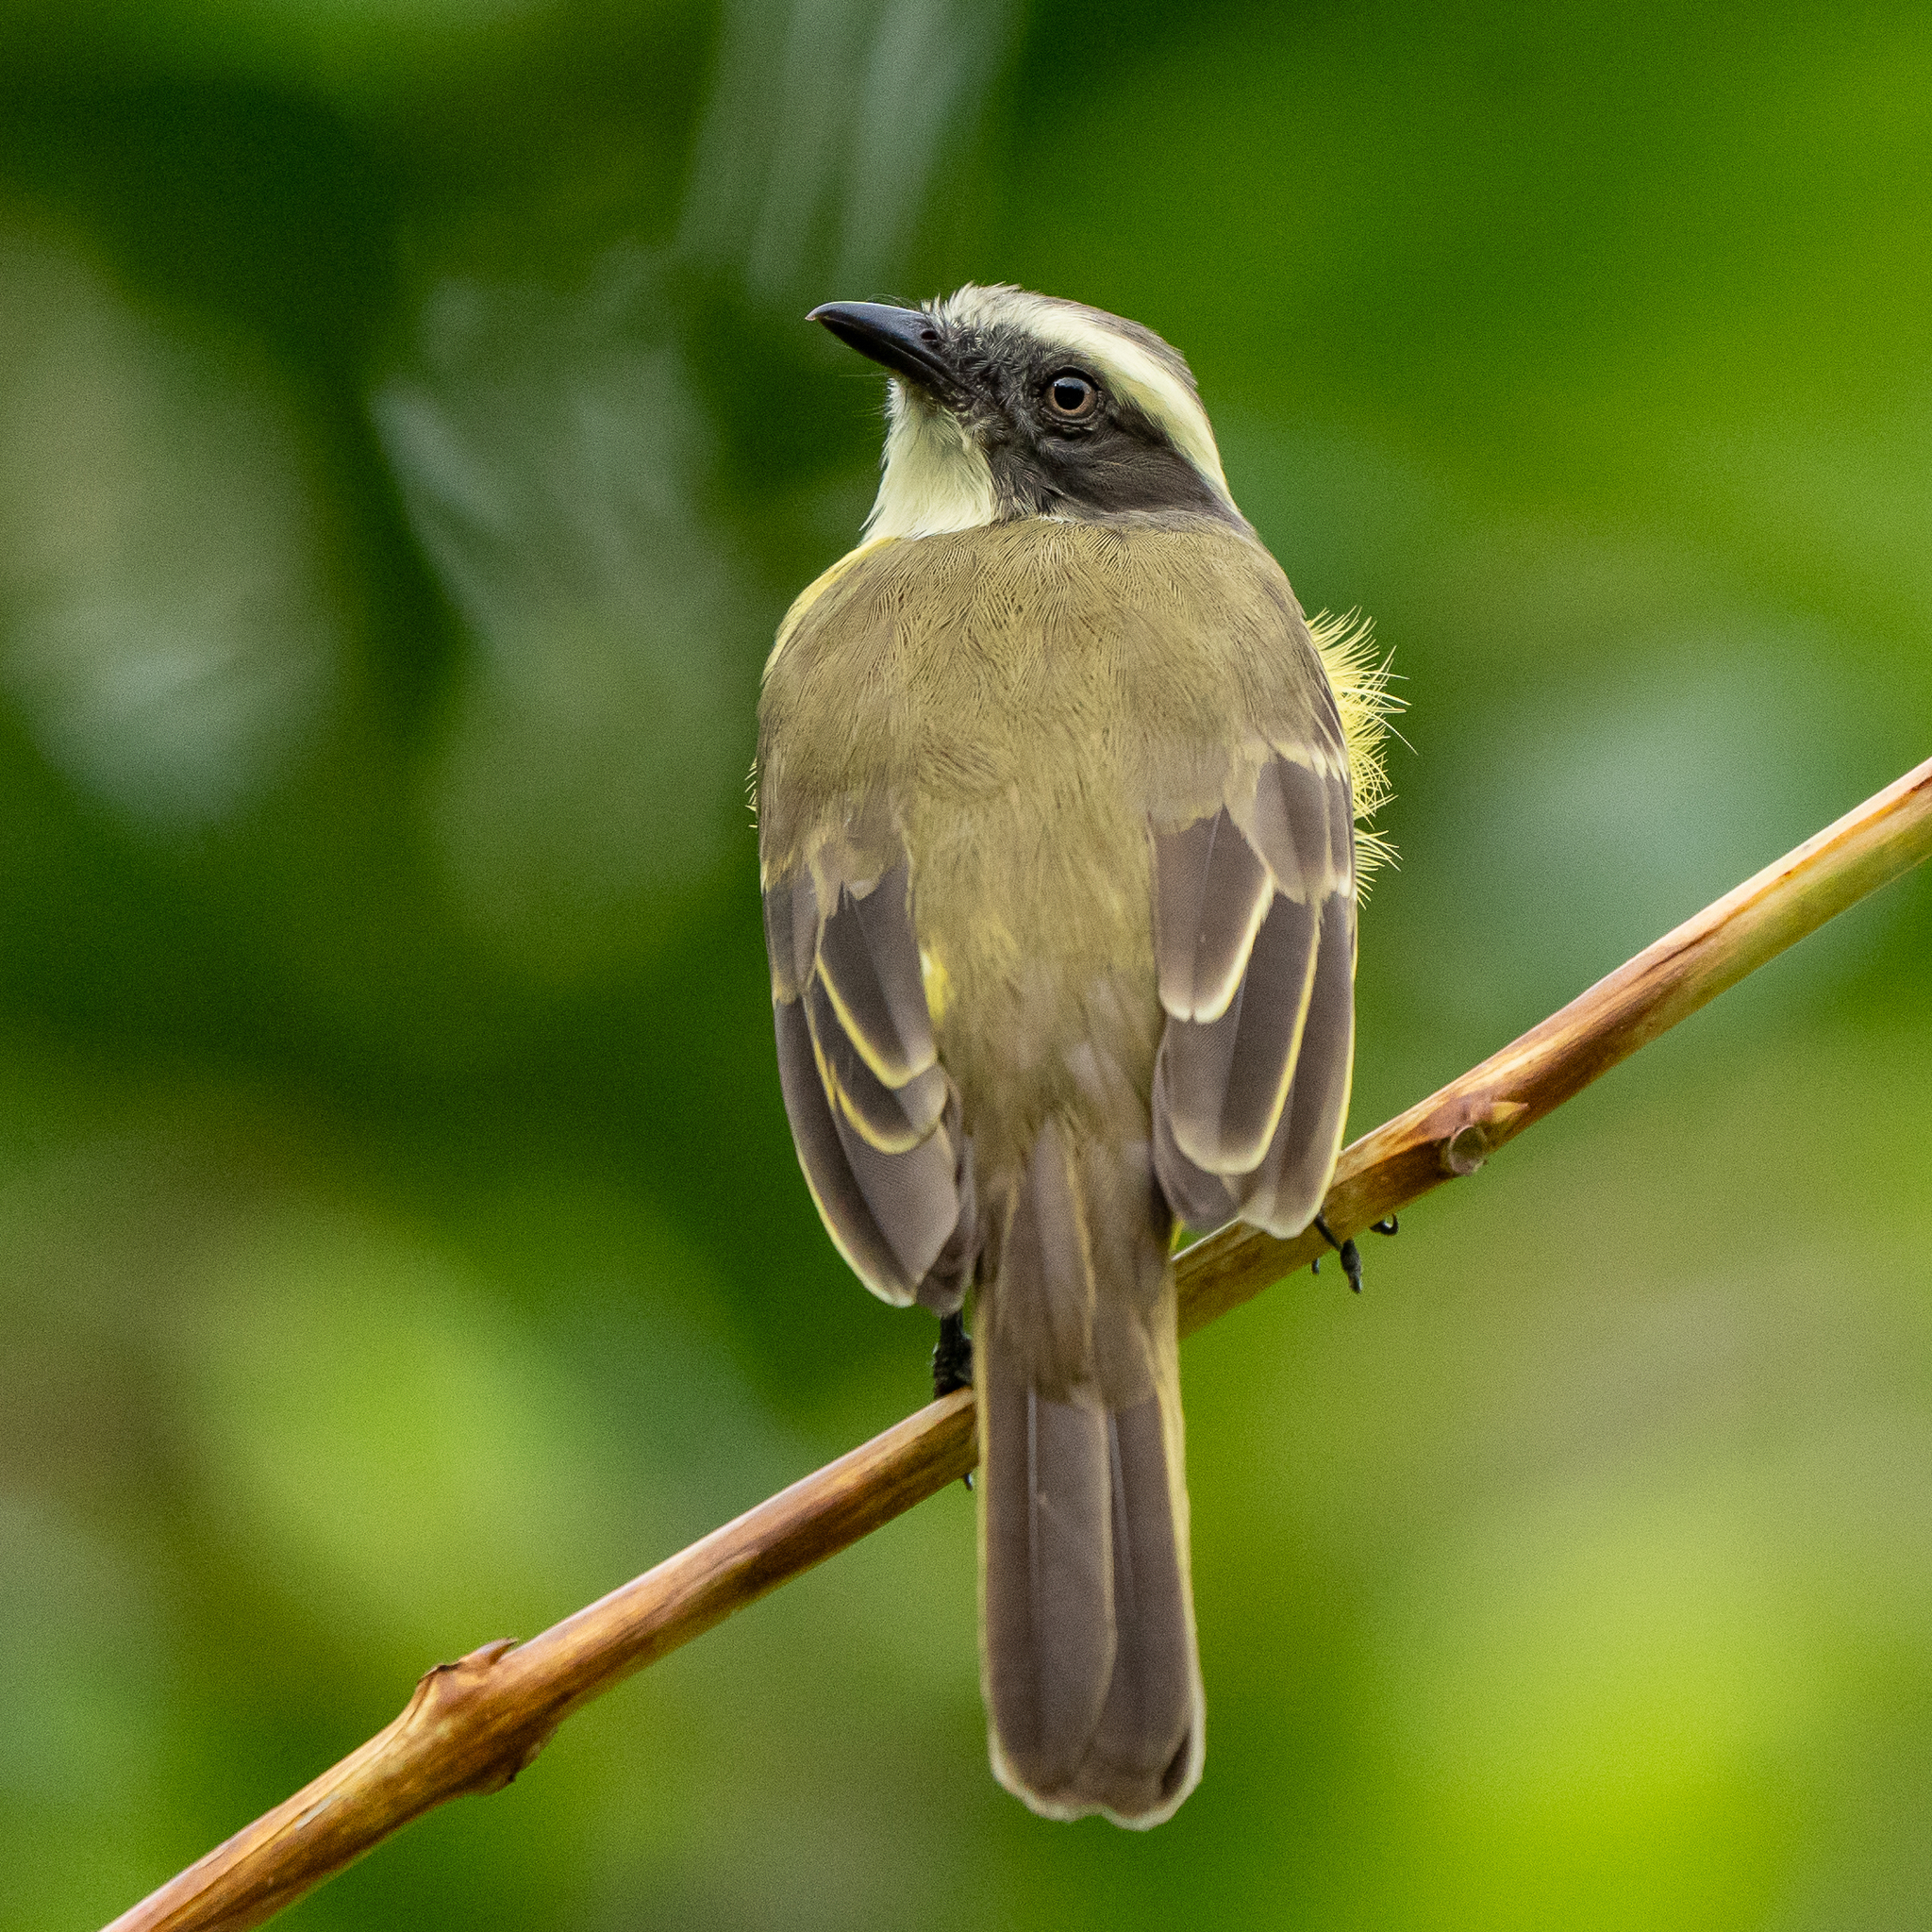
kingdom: Animalia
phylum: Chordata
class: Aves
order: Passeriformes
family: Tyrannidae
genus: Myiozetetes
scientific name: Myiozetetes similis
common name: Social flycatcher
